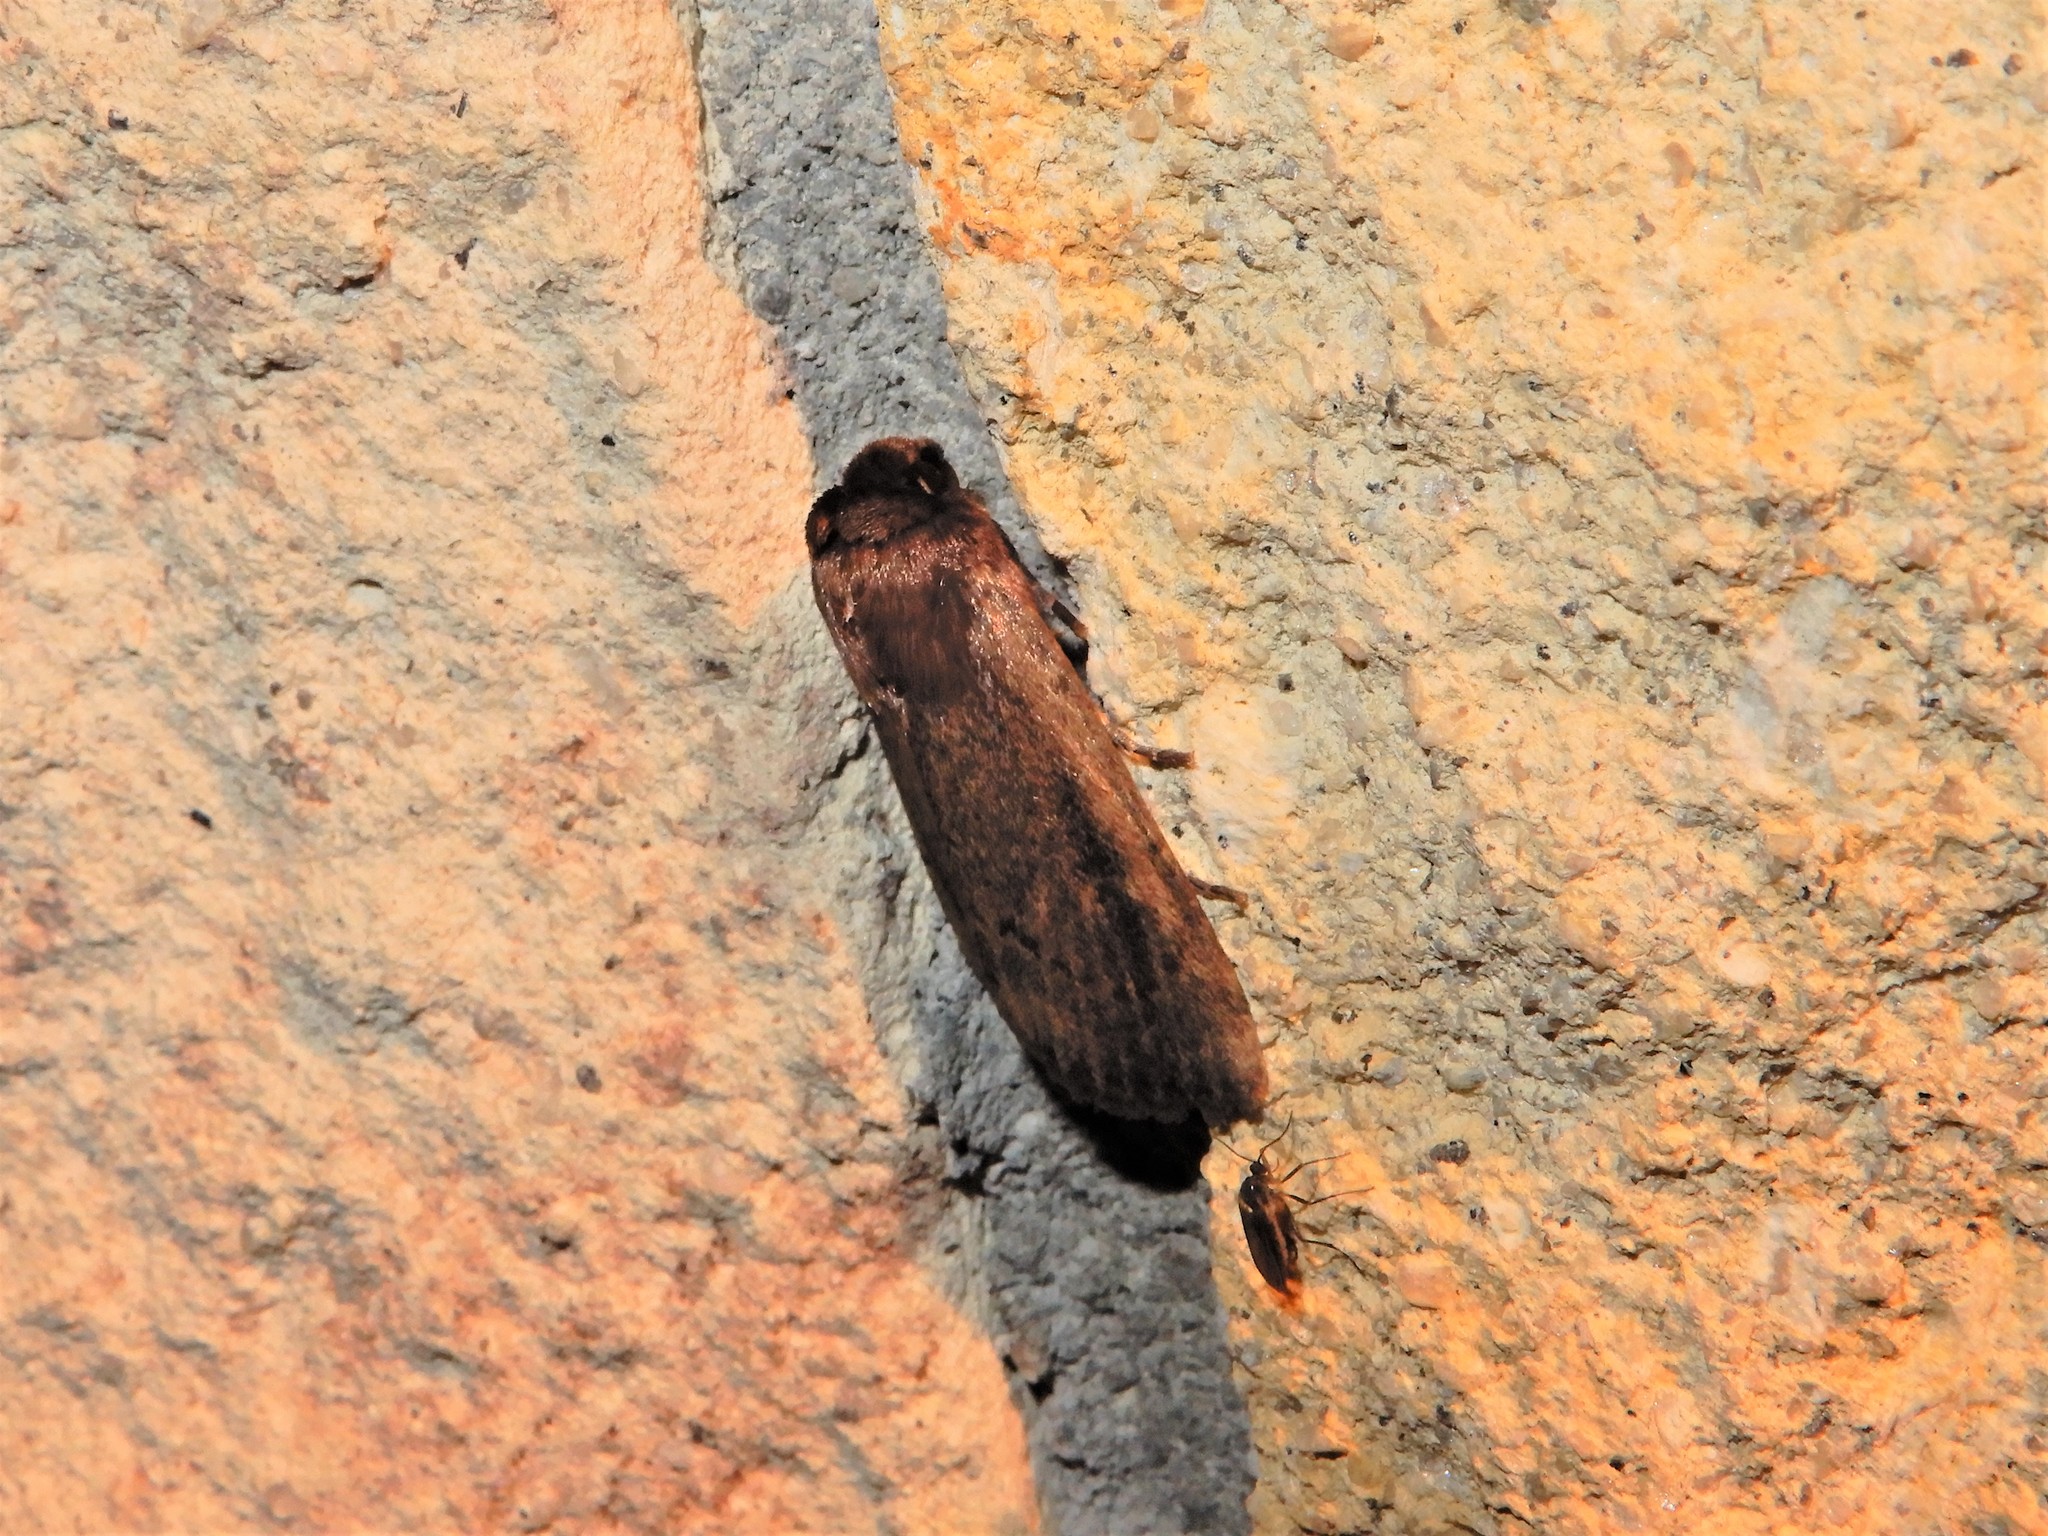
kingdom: Animalia
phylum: Arthropoda
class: Insecta
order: Lepidoptera
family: Noctuidae
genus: Bityla
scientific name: Bityla defigurata
